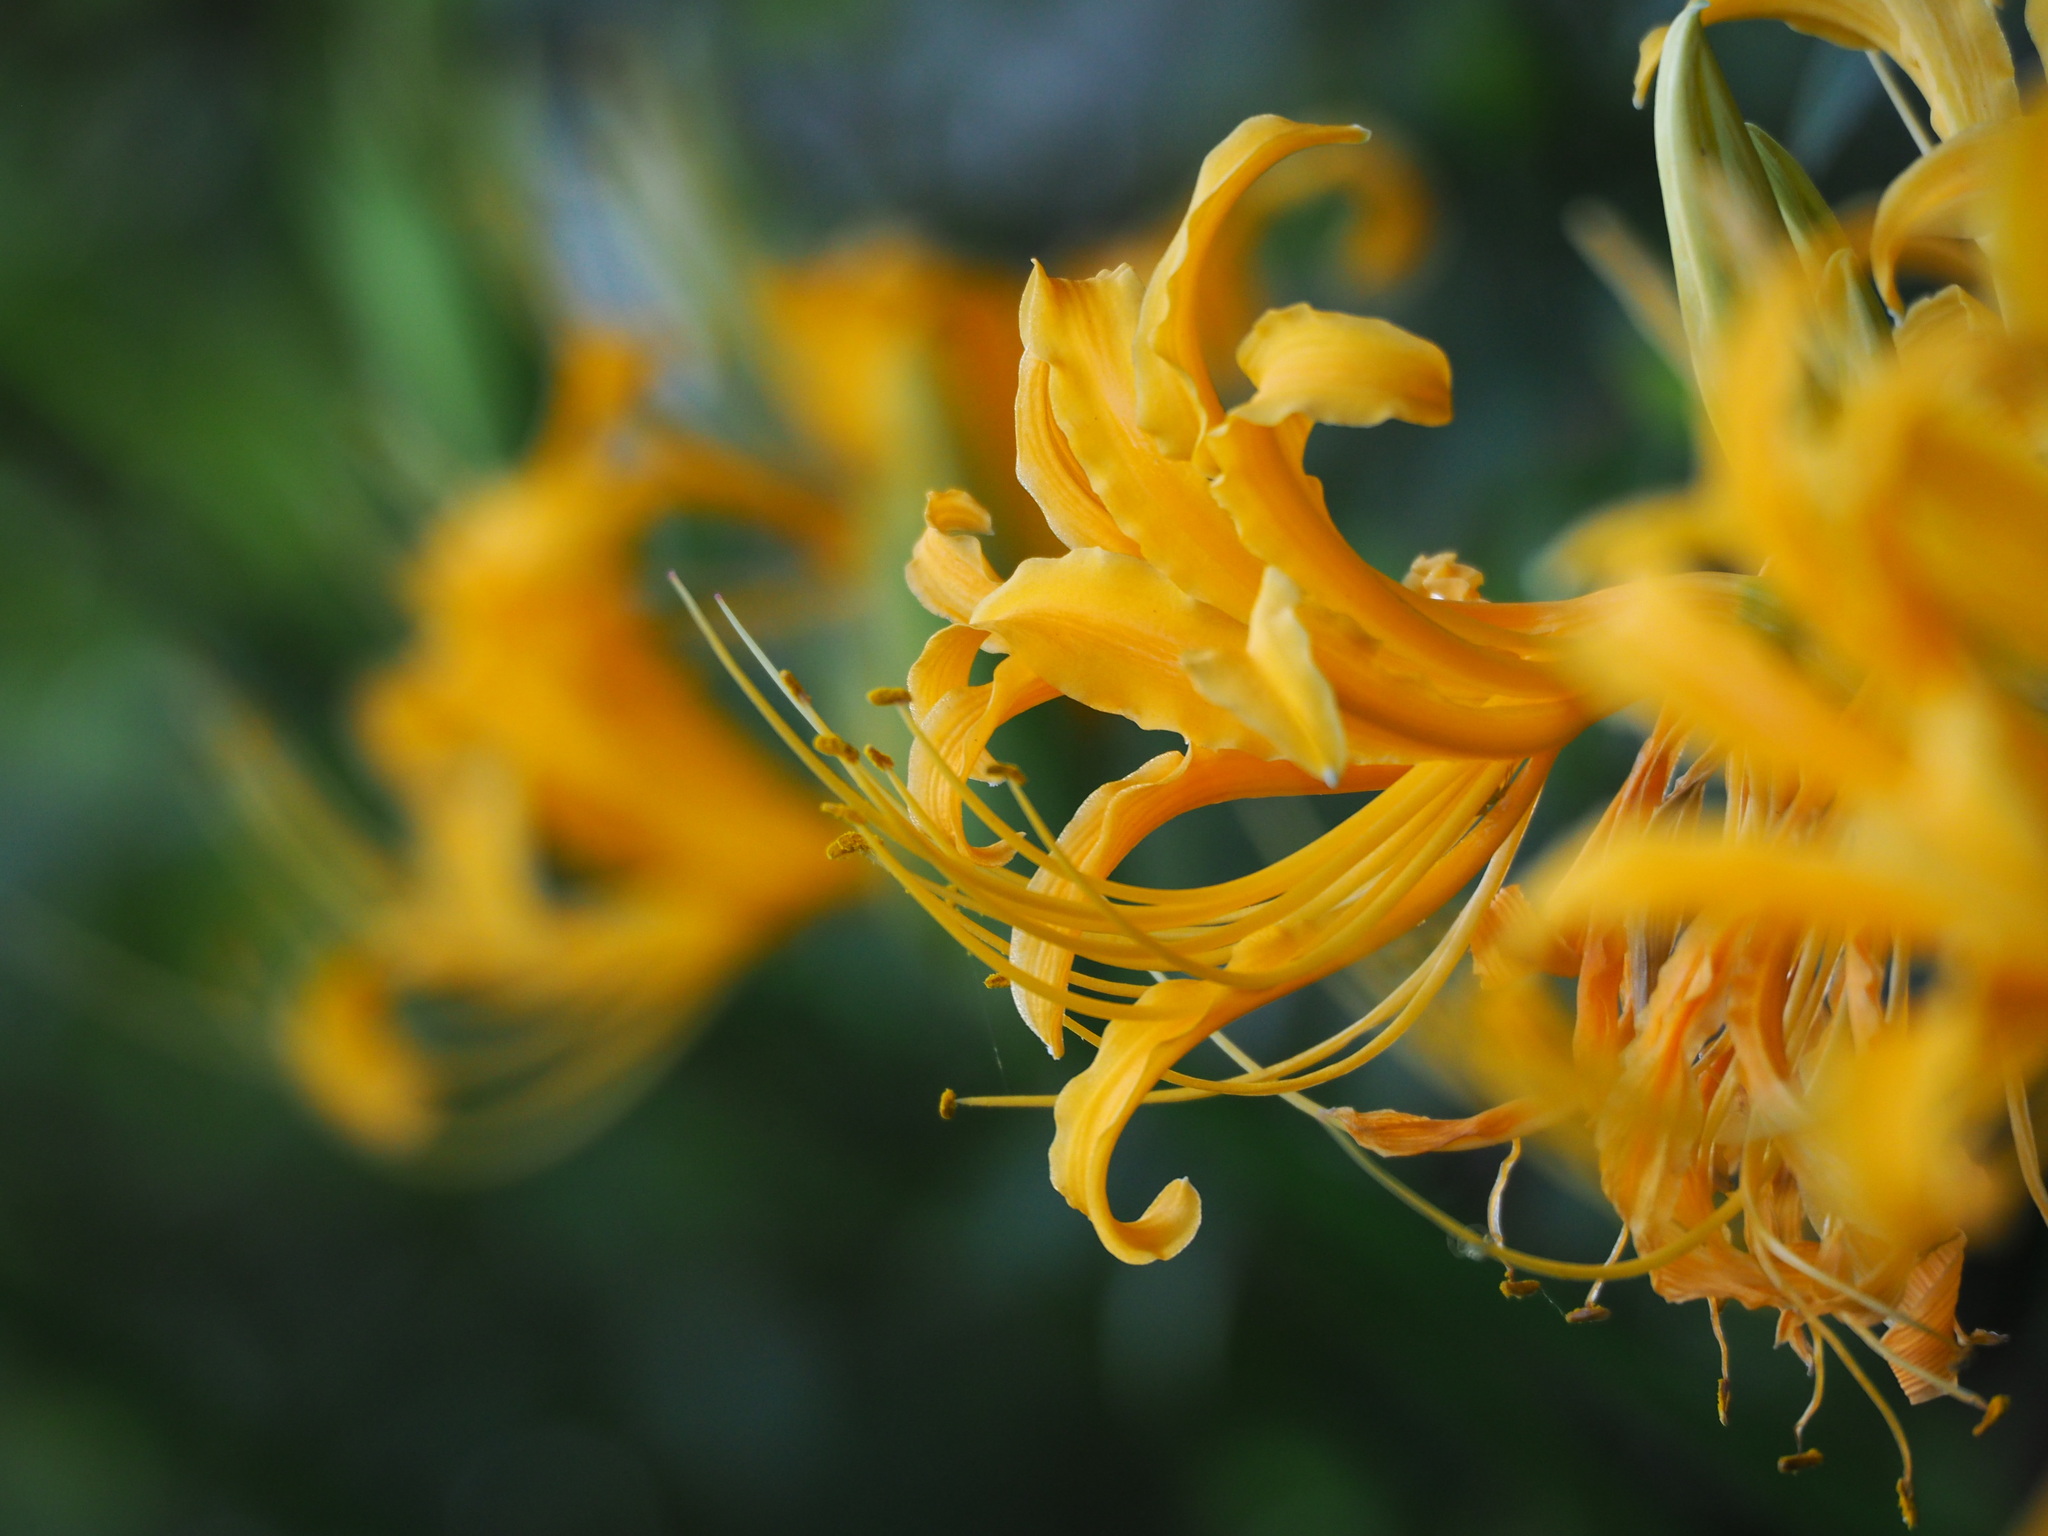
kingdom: Plantae
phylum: Tracheophyta
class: Liliopsida
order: Asparagales
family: Amaryllidaceae
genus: Lycoris
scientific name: Lycoris aurea
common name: Golden hurricane-lily
